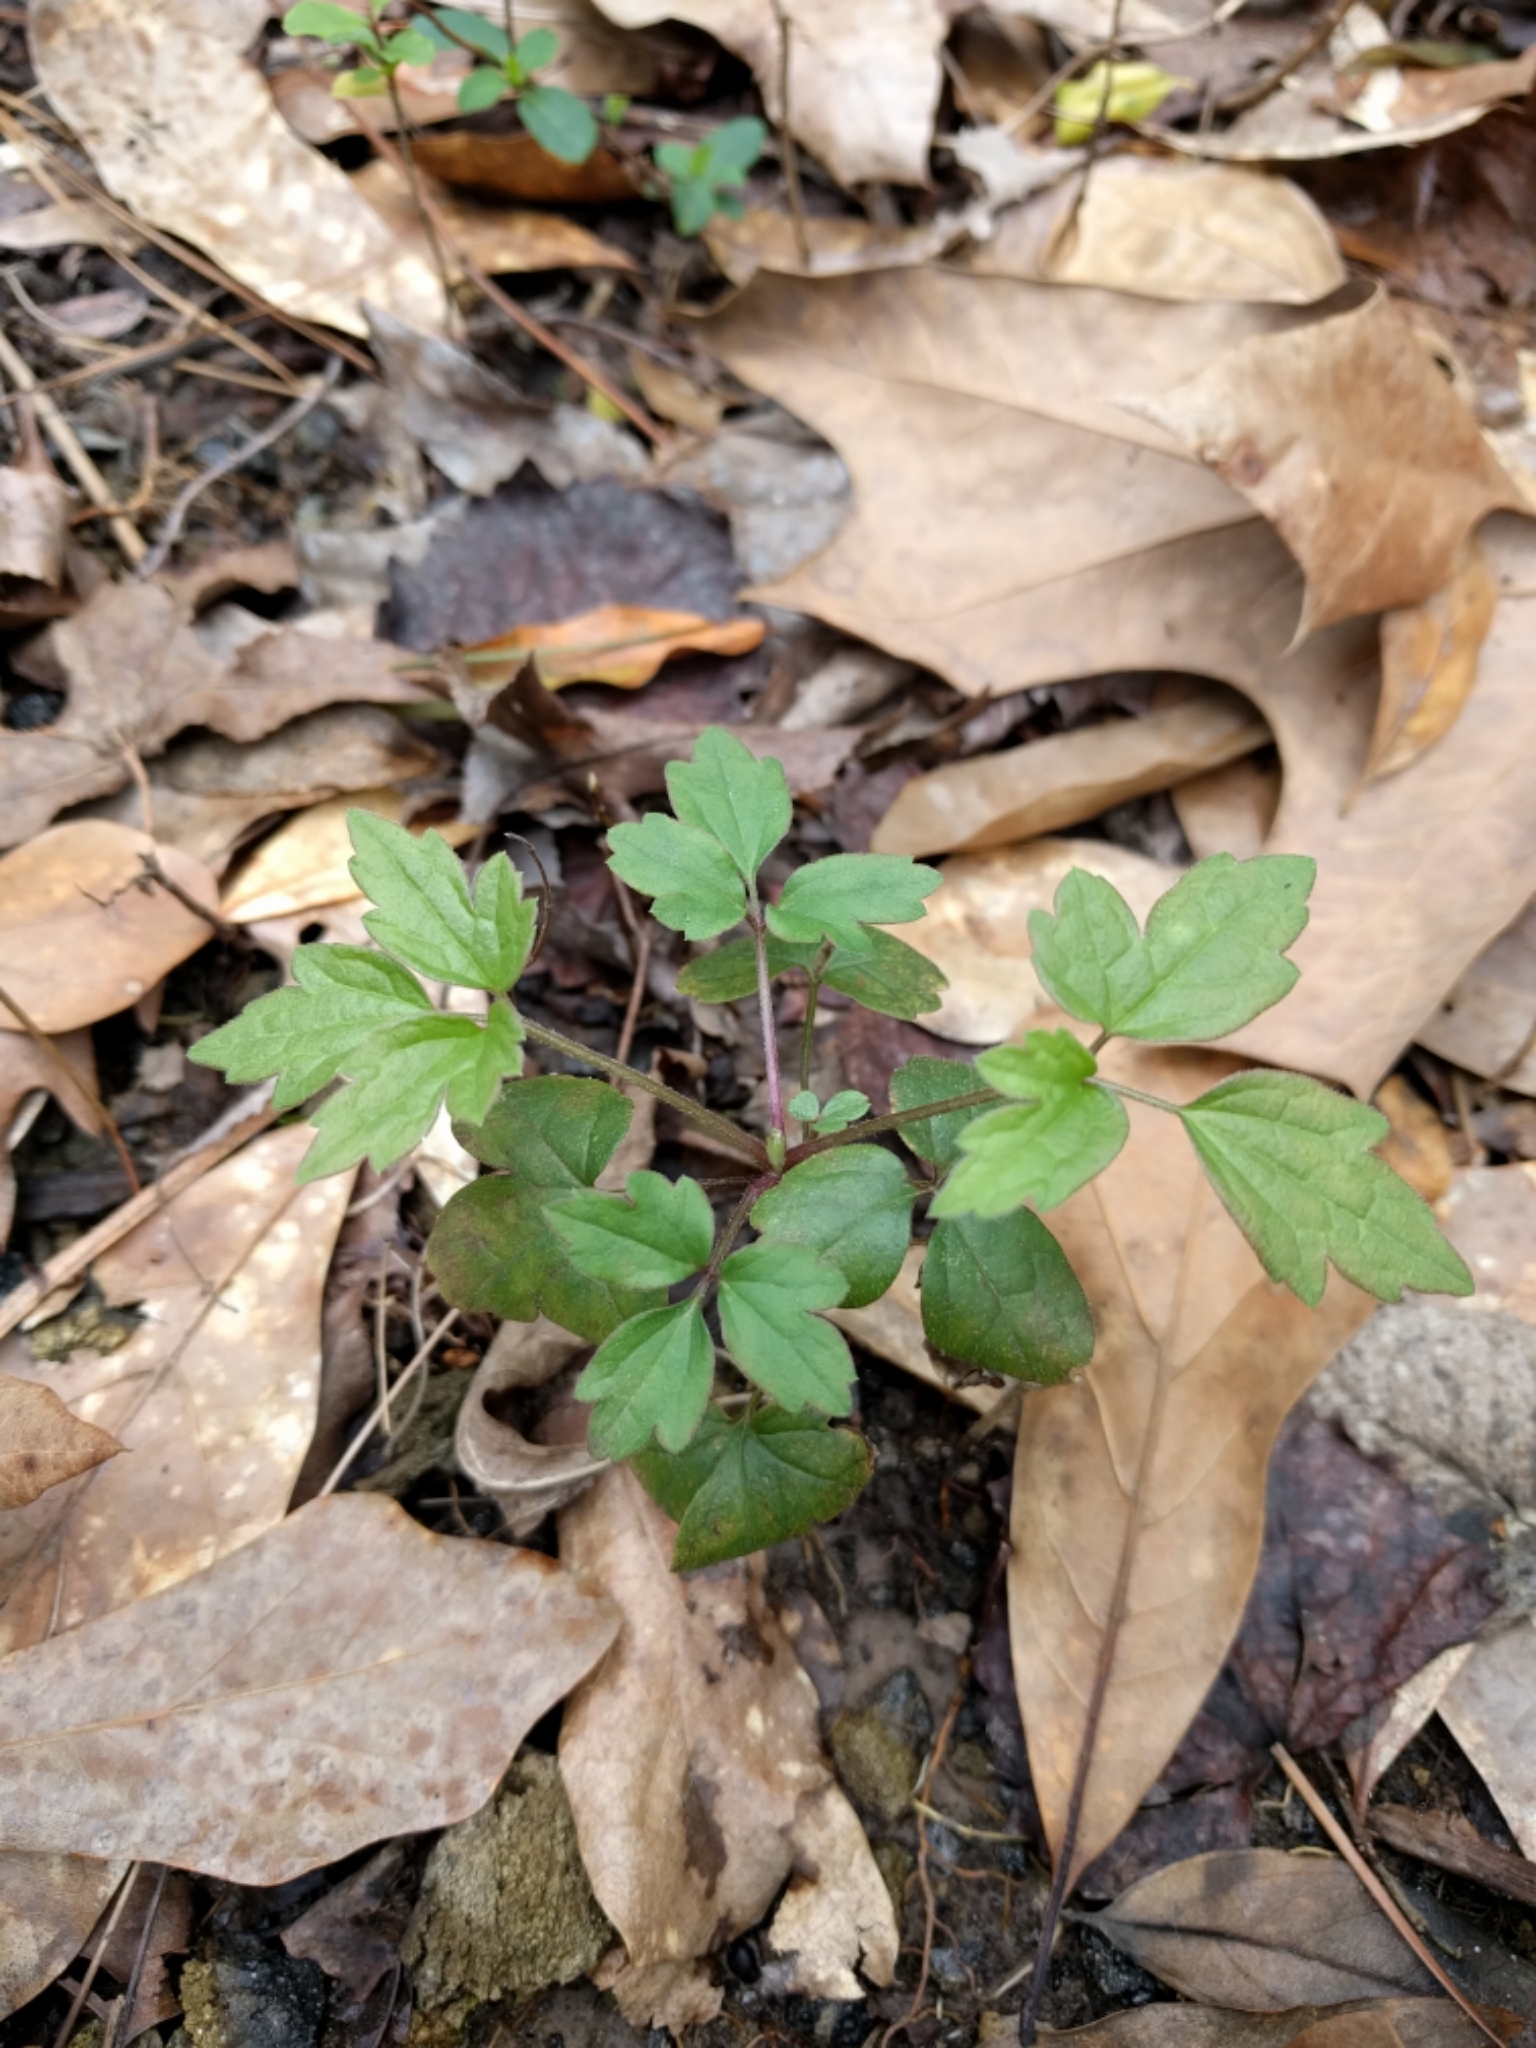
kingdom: Plantae
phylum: Tracheophyta
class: Magnoliopsida
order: Sapindales
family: Anacardiaceae
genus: Toxicodendron
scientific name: Toxicodendron radicans
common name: Poison ivy
